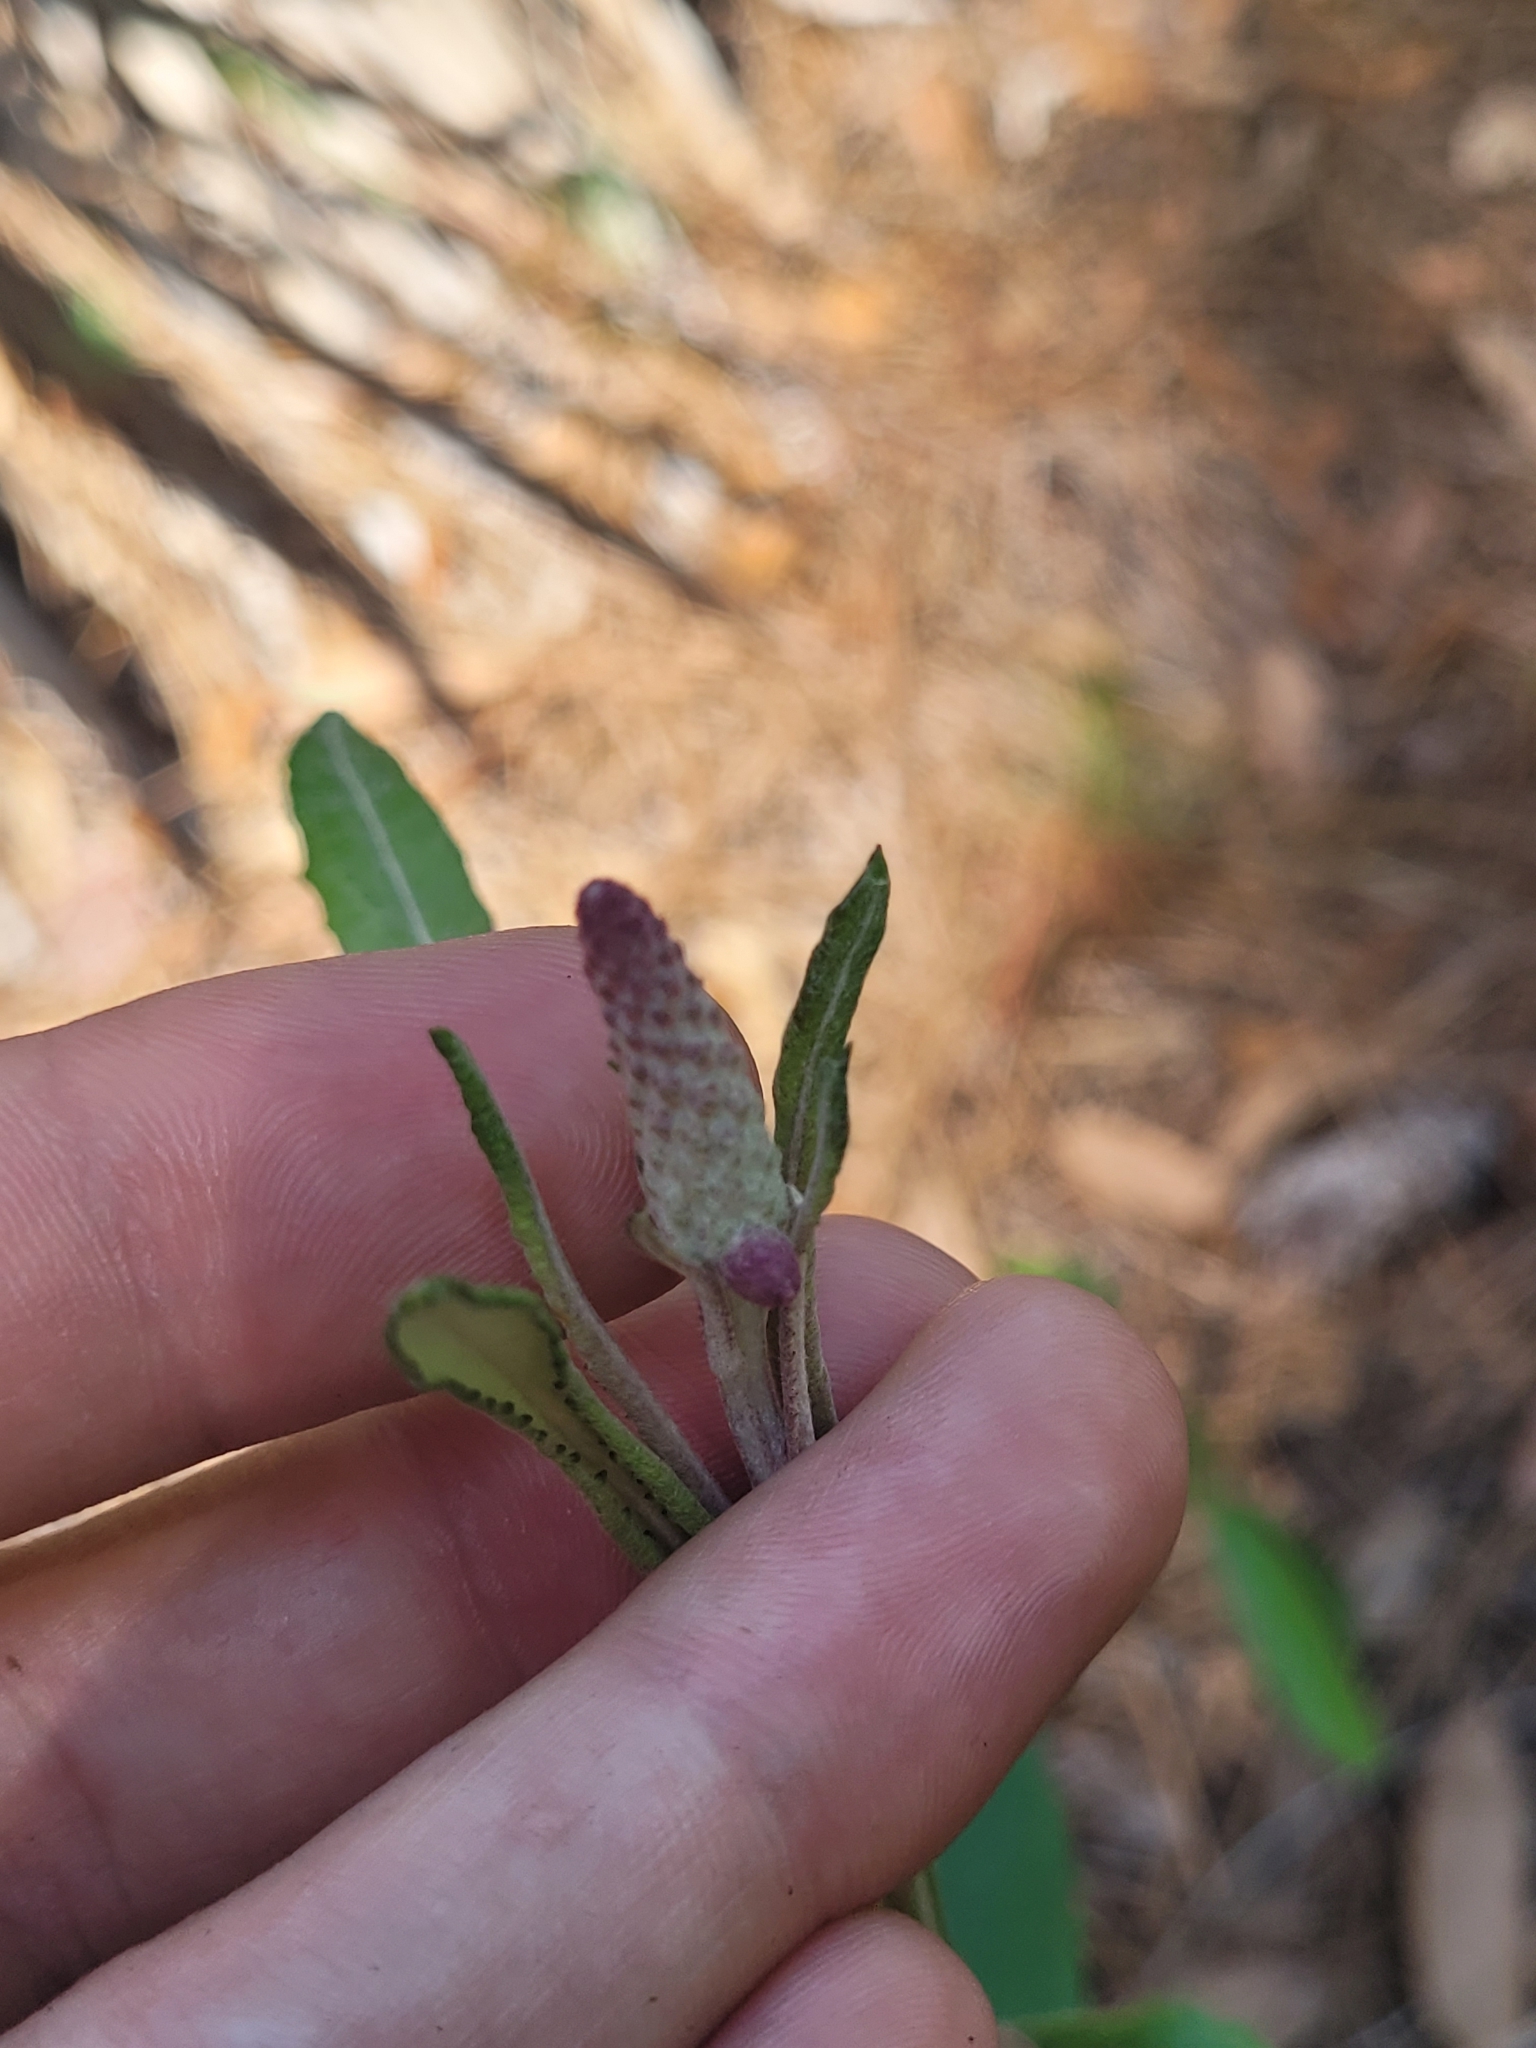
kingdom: Plantae
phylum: Tracheophyta
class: Magnoliopsida
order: Asterales
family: Asteraceae
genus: Pterocaulon
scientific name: Pterocaulon pycnostachyum
